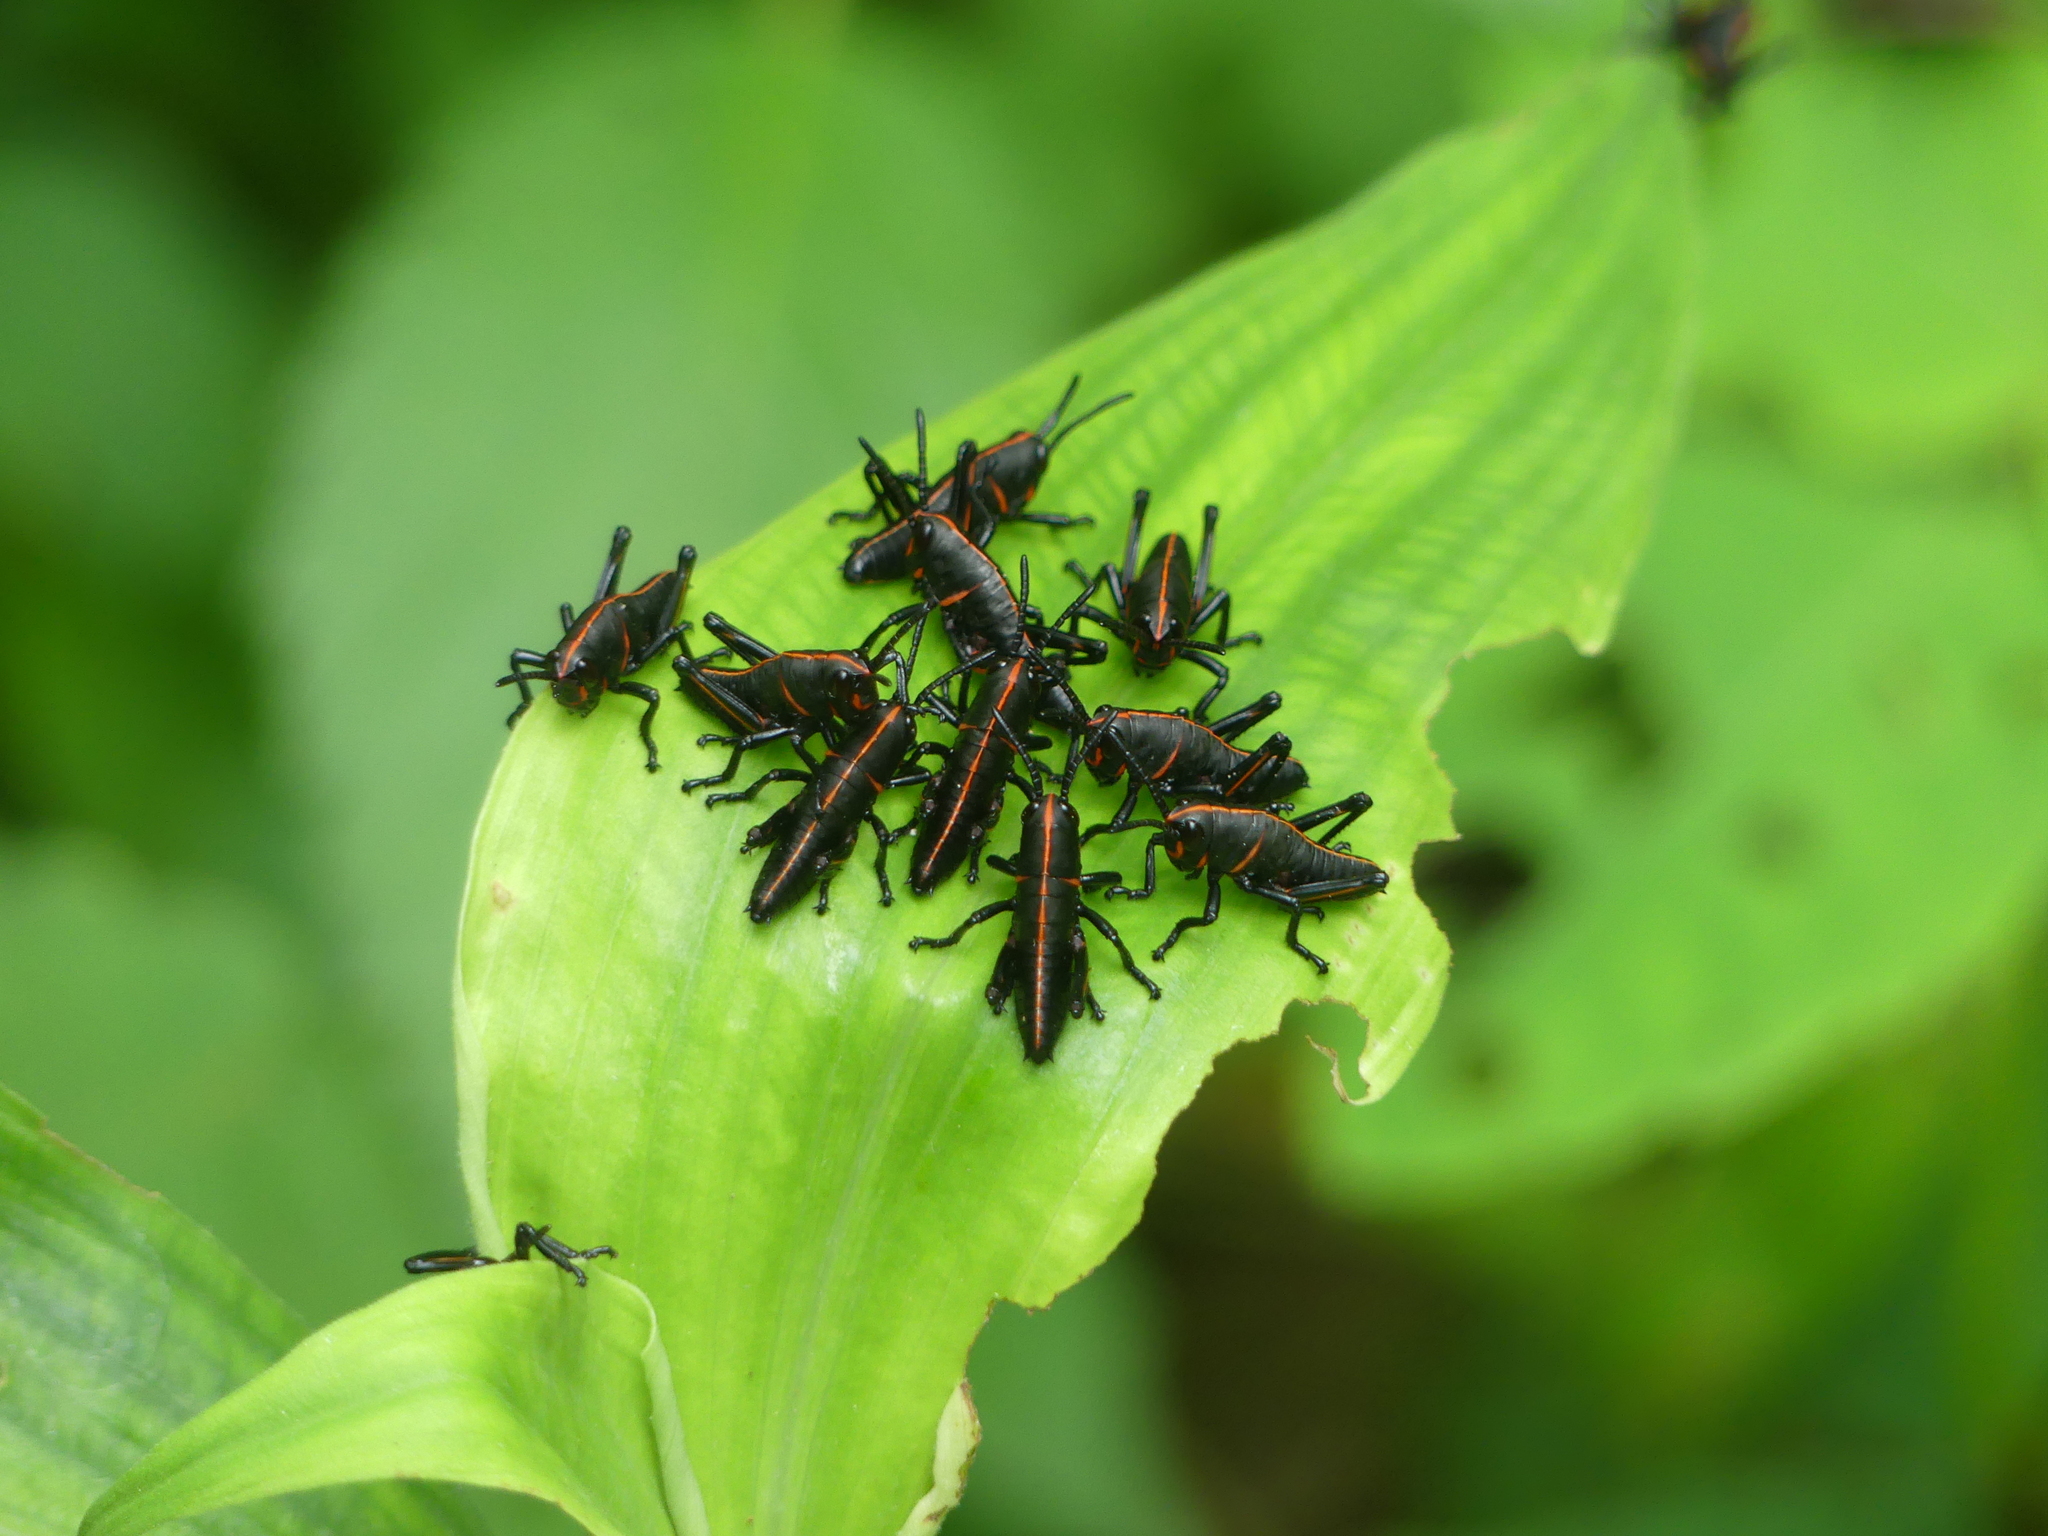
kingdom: Animalia
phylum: Arthropoda
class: Insecta
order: Orthoptera
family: Romaleidae
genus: Romalea
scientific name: Romalea microptera
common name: Eastern lubber grasshopper
